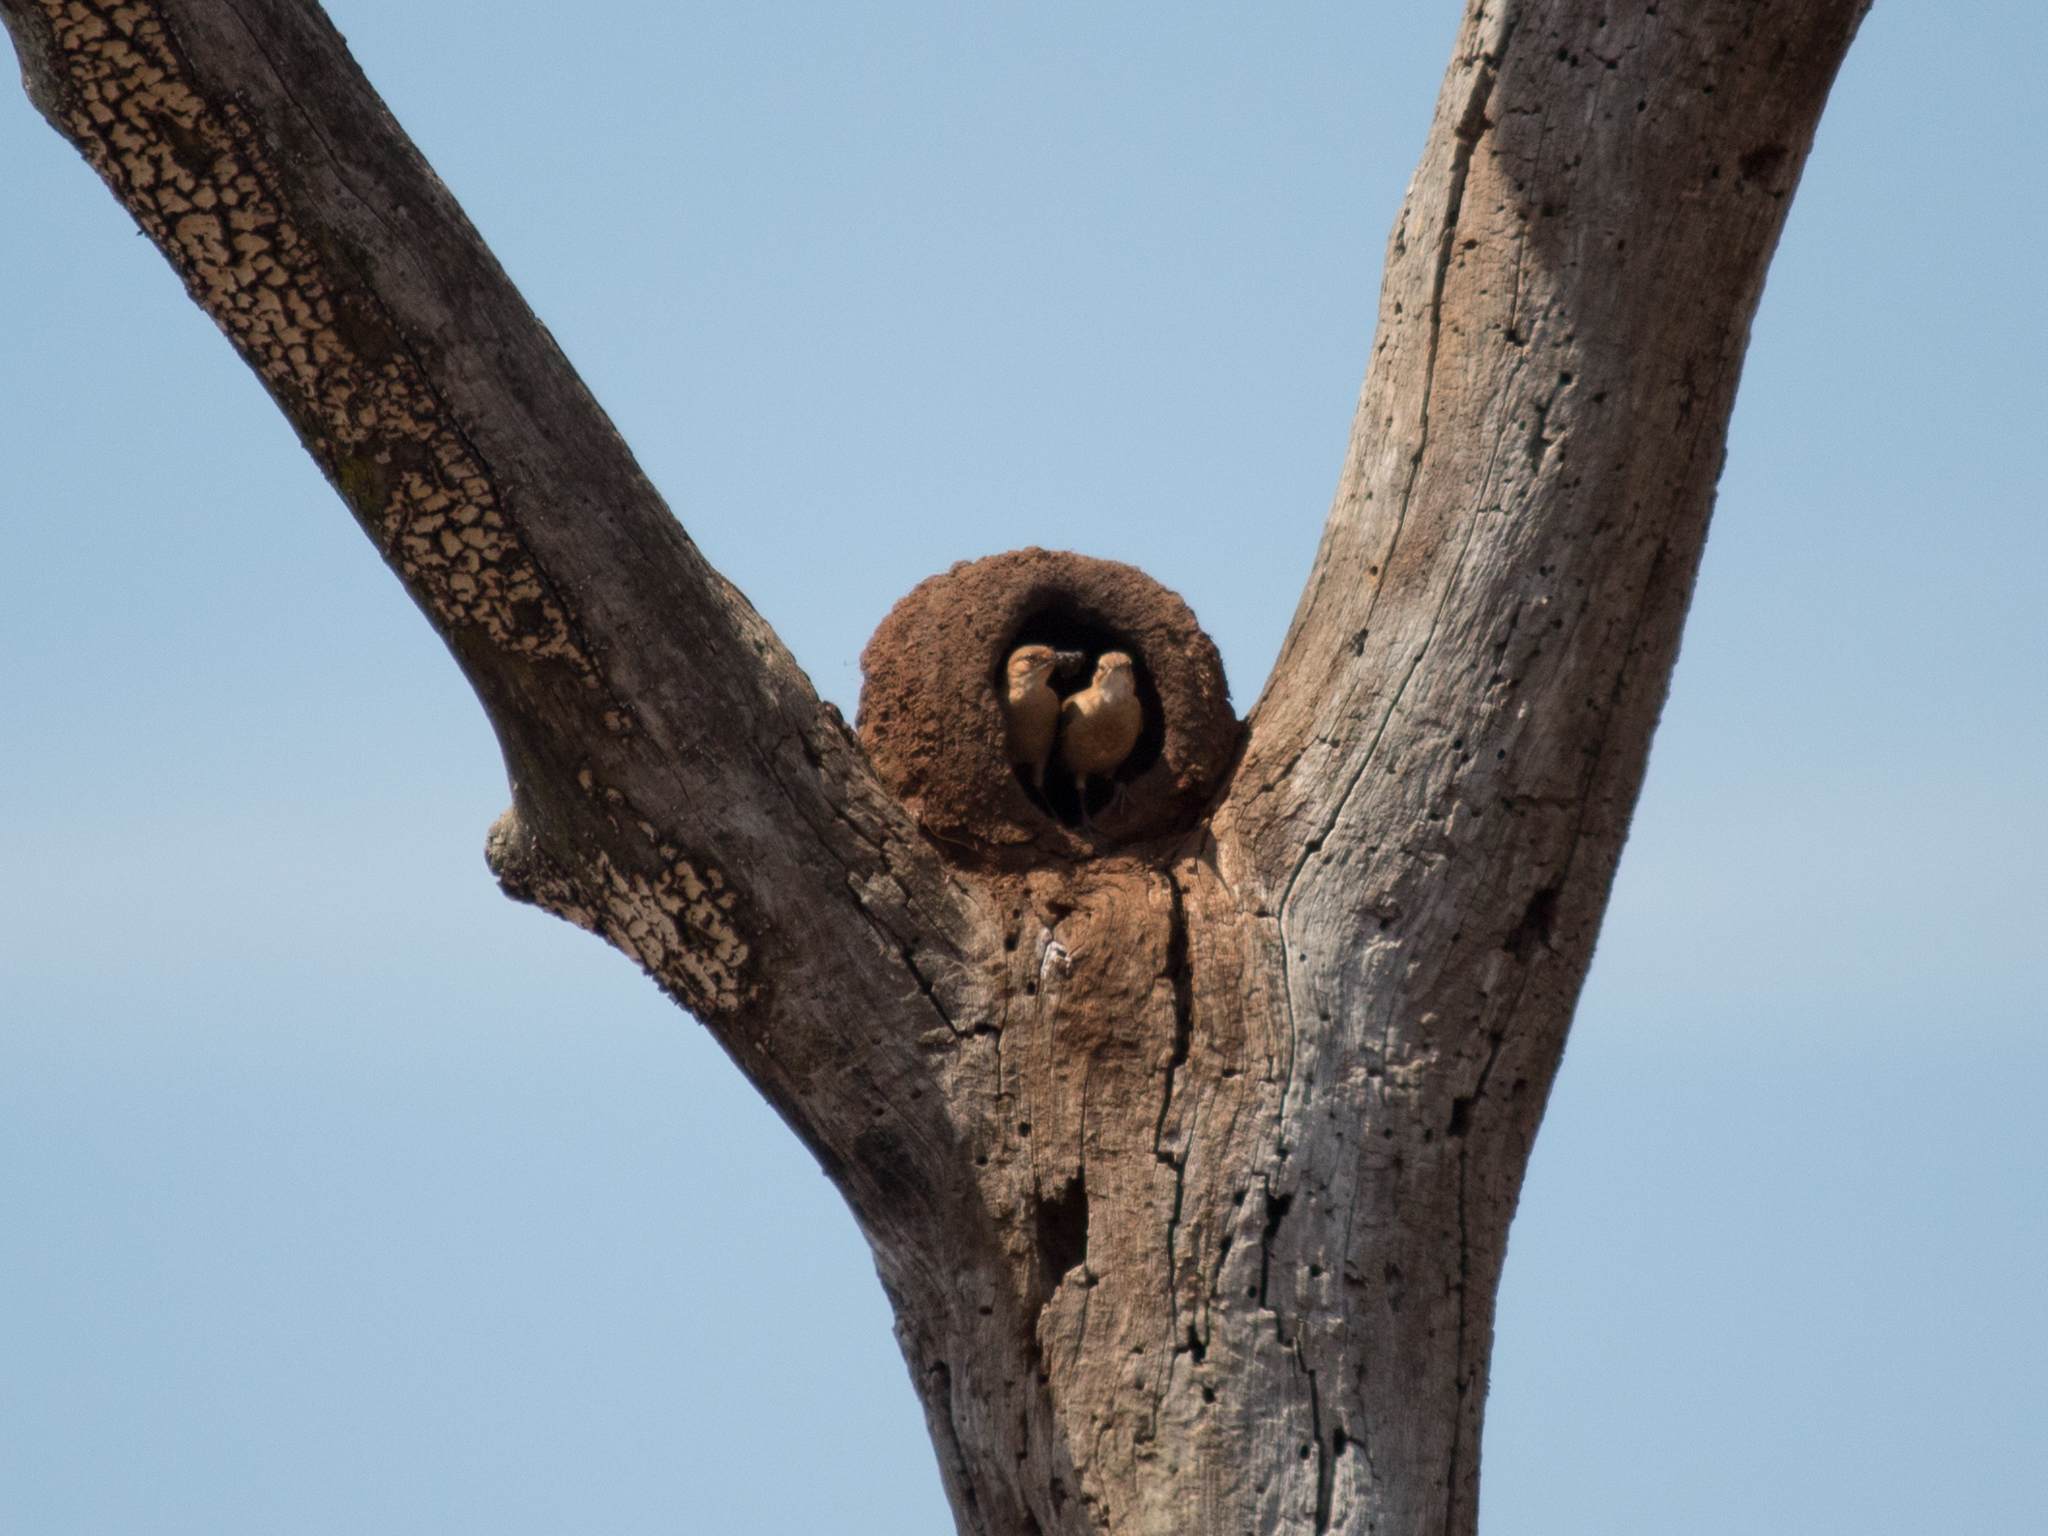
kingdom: Animalia
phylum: Chordata
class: Aves
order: Passeriformes
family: Furnariidae
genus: Furnarius
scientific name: Furnarius rufus
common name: Rufous hornero
